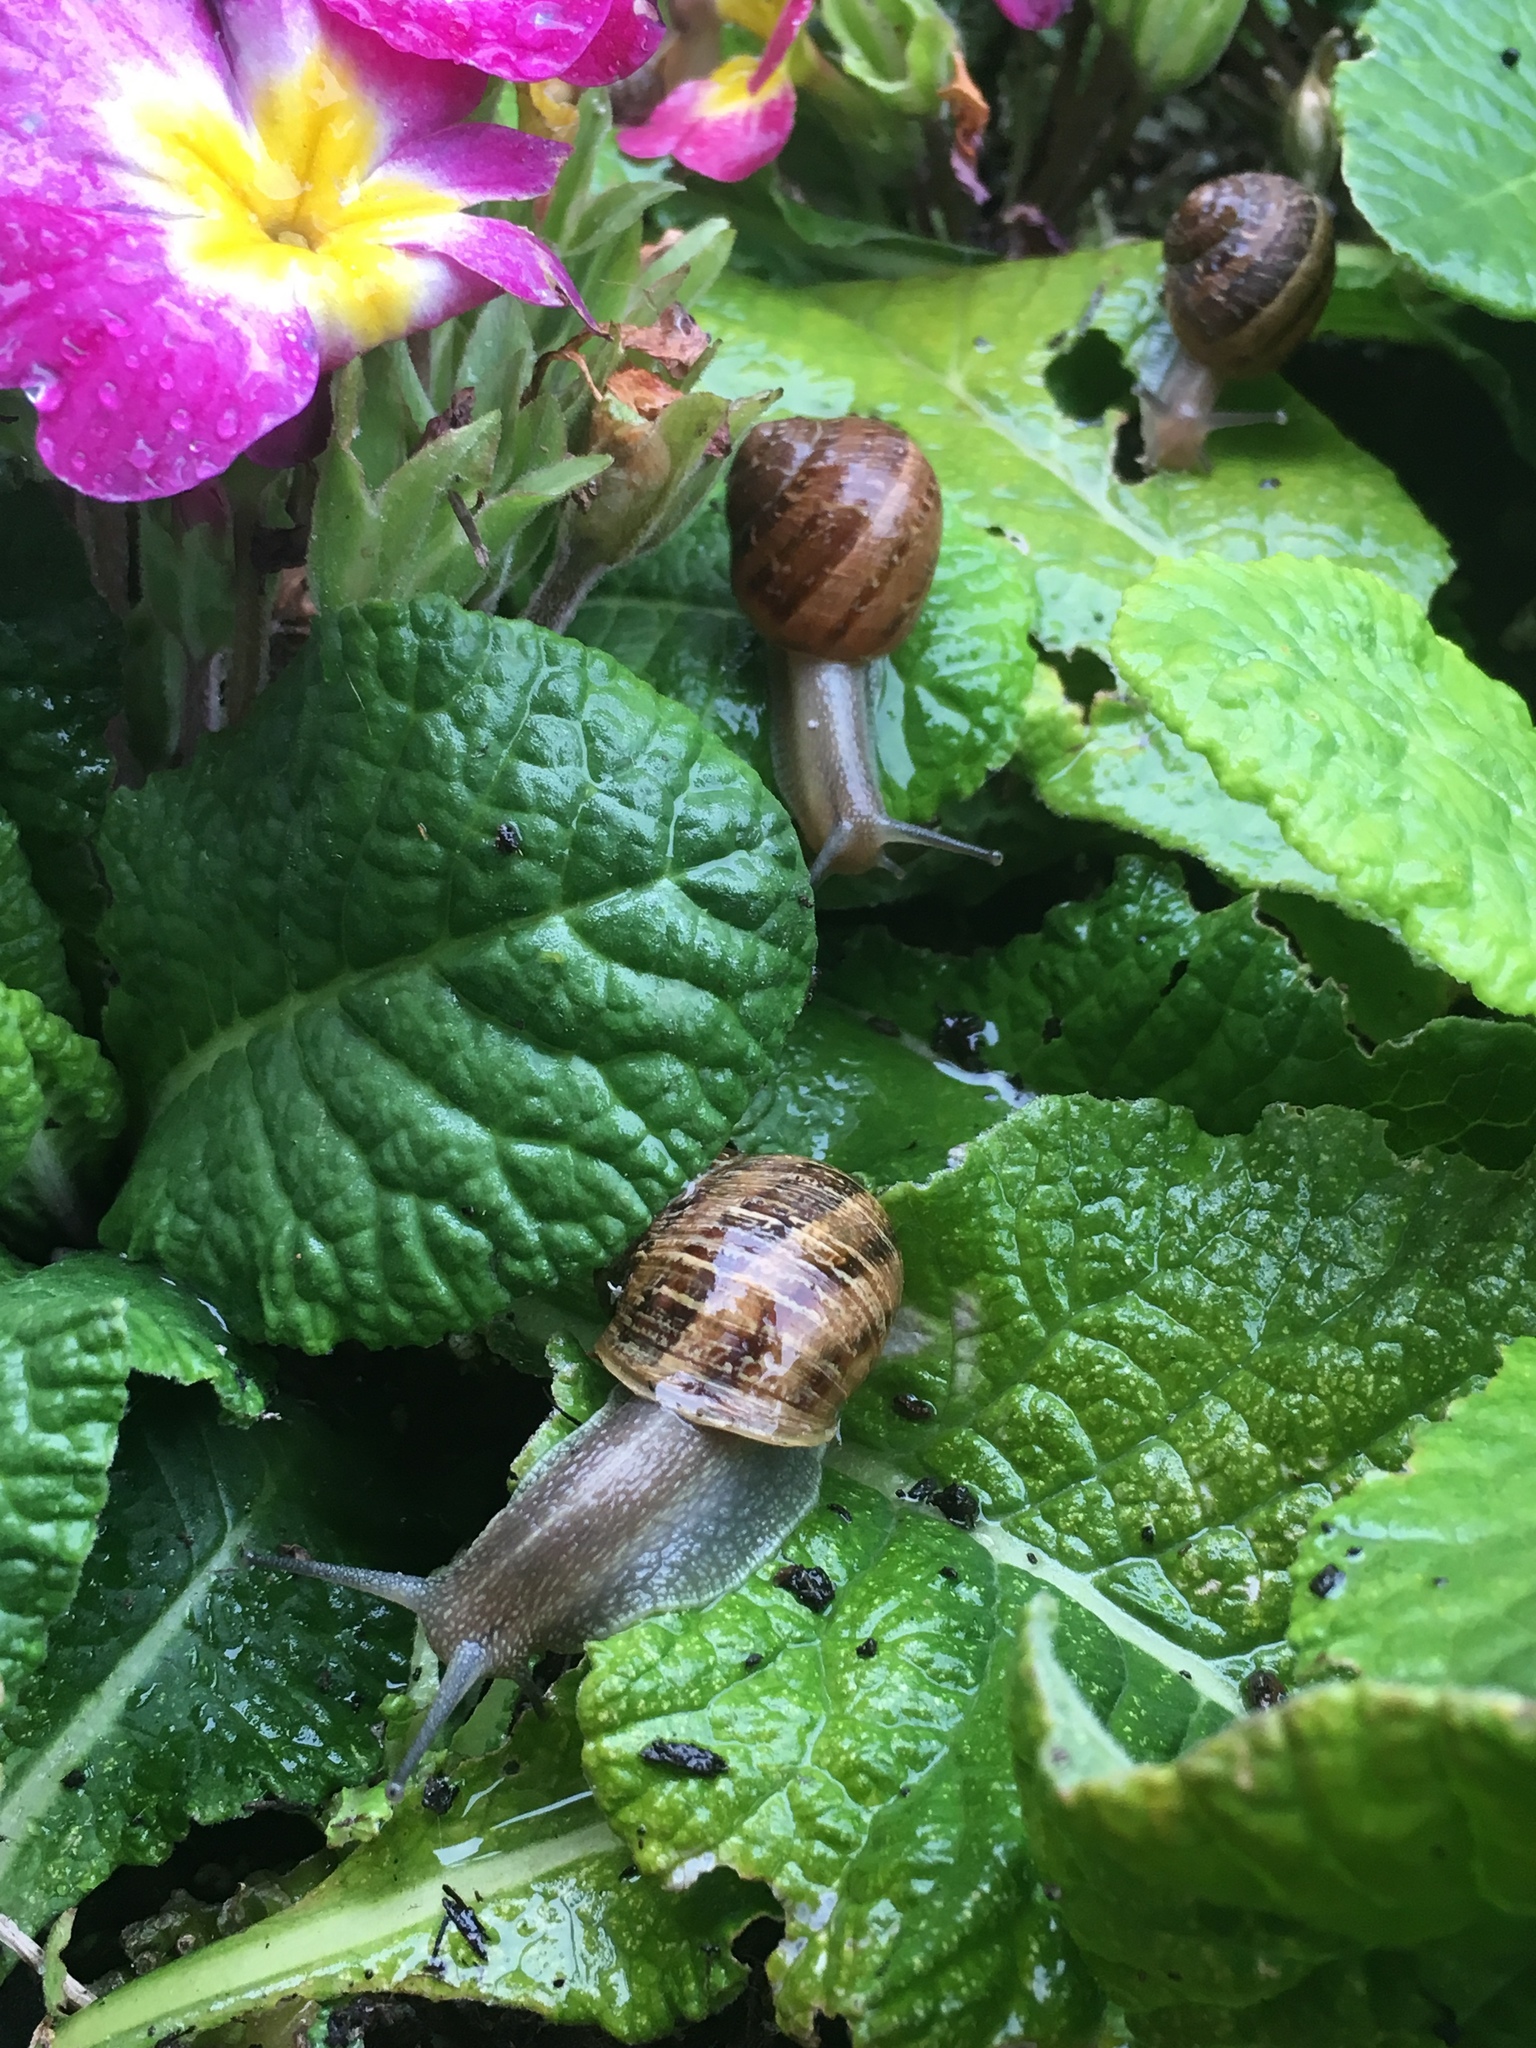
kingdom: Animalia
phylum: Mollusca
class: Gastropoda
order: Stylommatophora
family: Helicidae
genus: Cornu
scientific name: Cornu aspersum
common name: Brown garden snail
